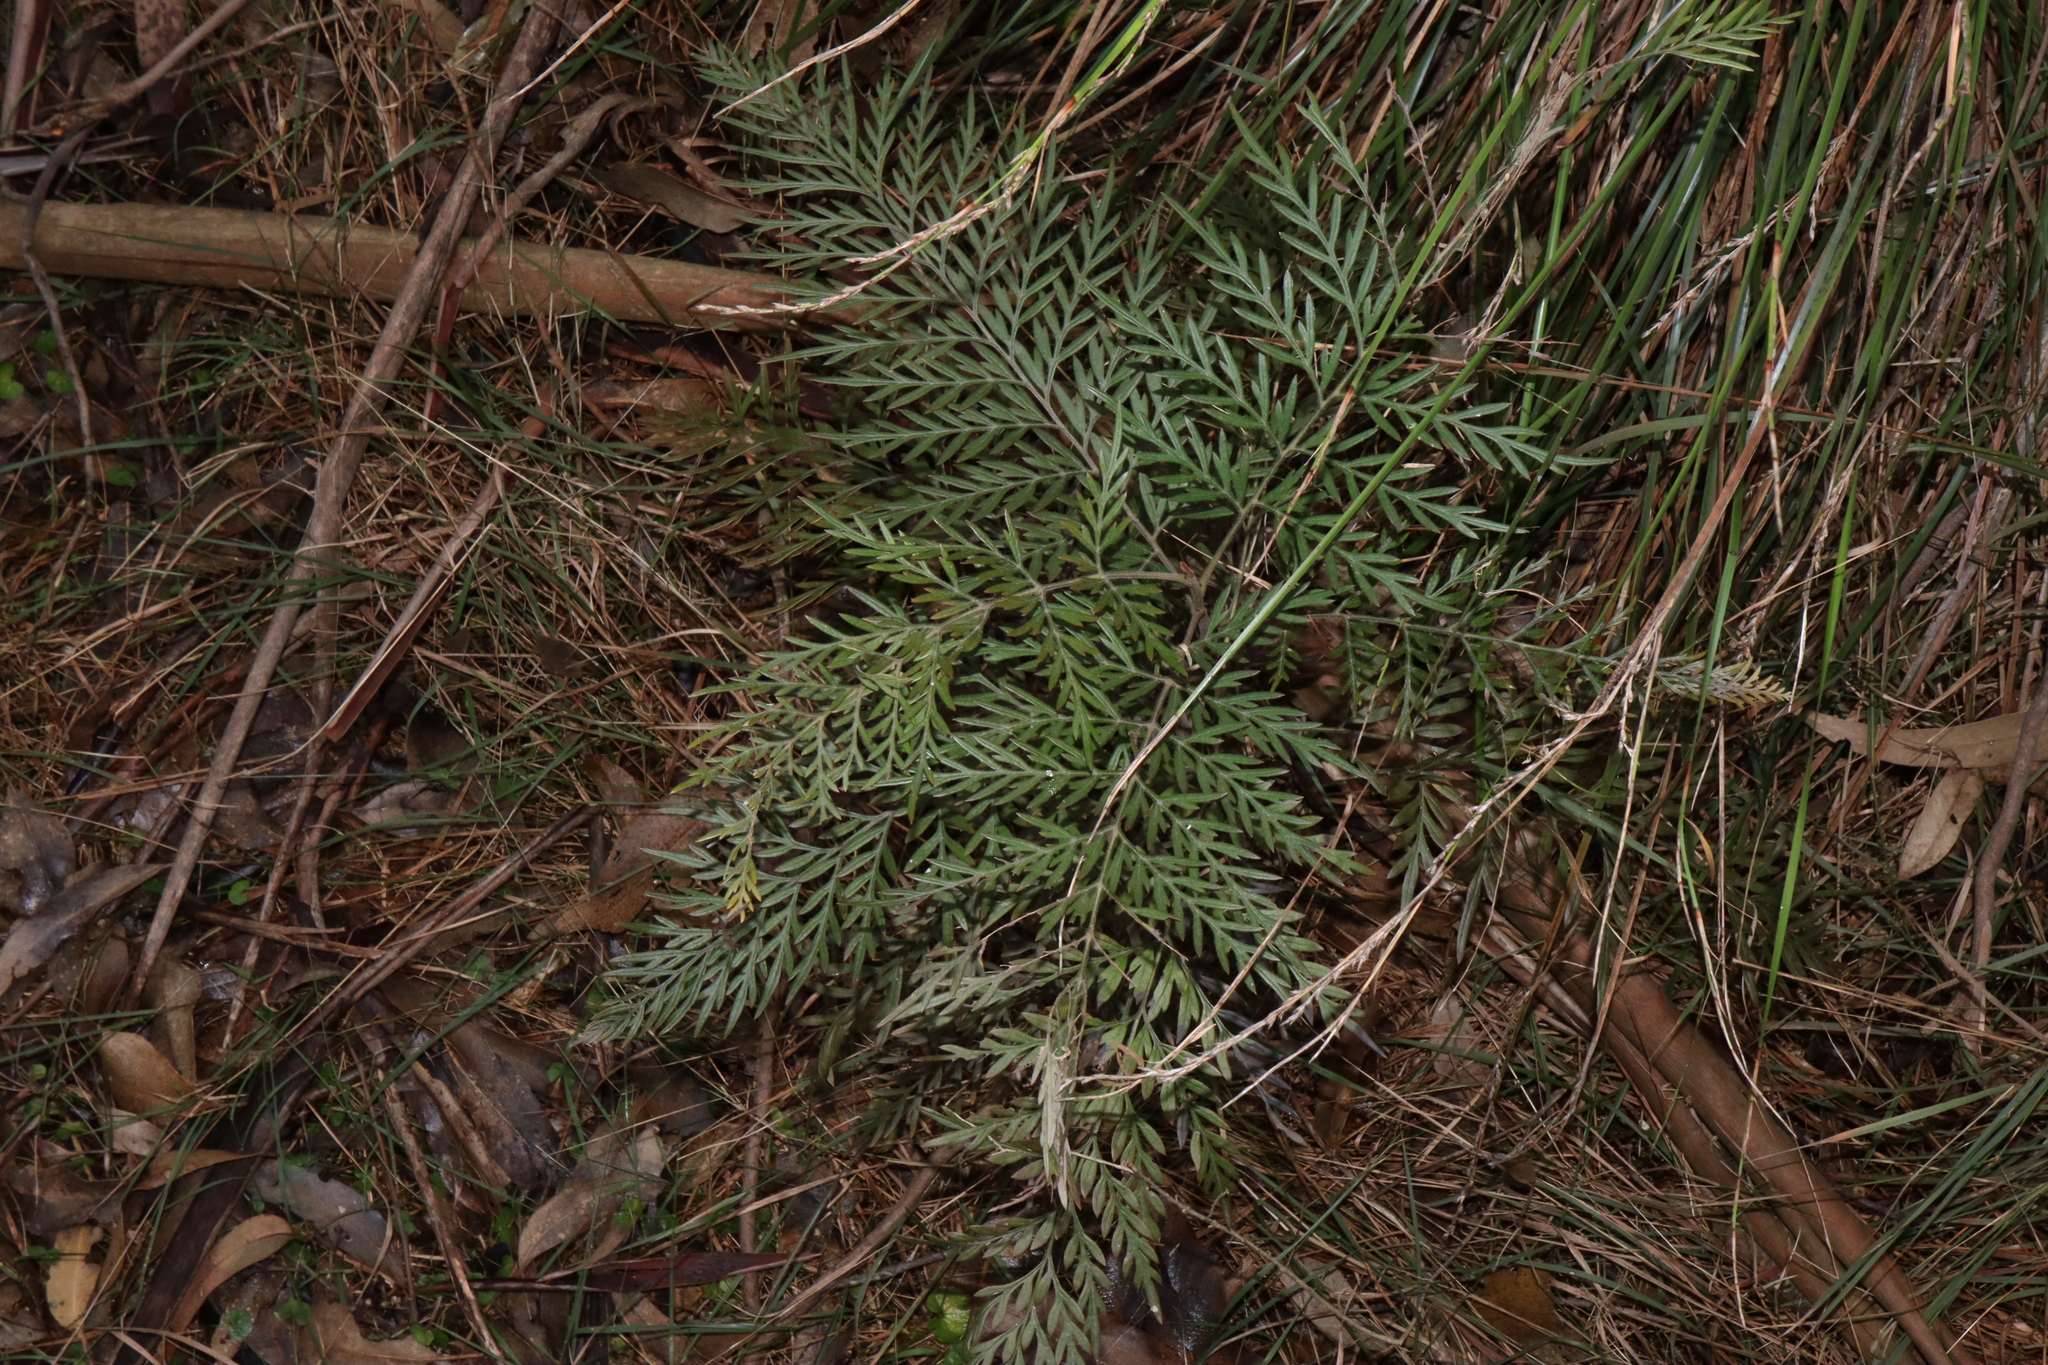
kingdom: Plantae
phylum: Tracheophyta
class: Magnoliopsida
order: Proteales
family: Proteaceae
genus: Grevillea
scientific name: Grevillea robusta
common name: Silkoak
